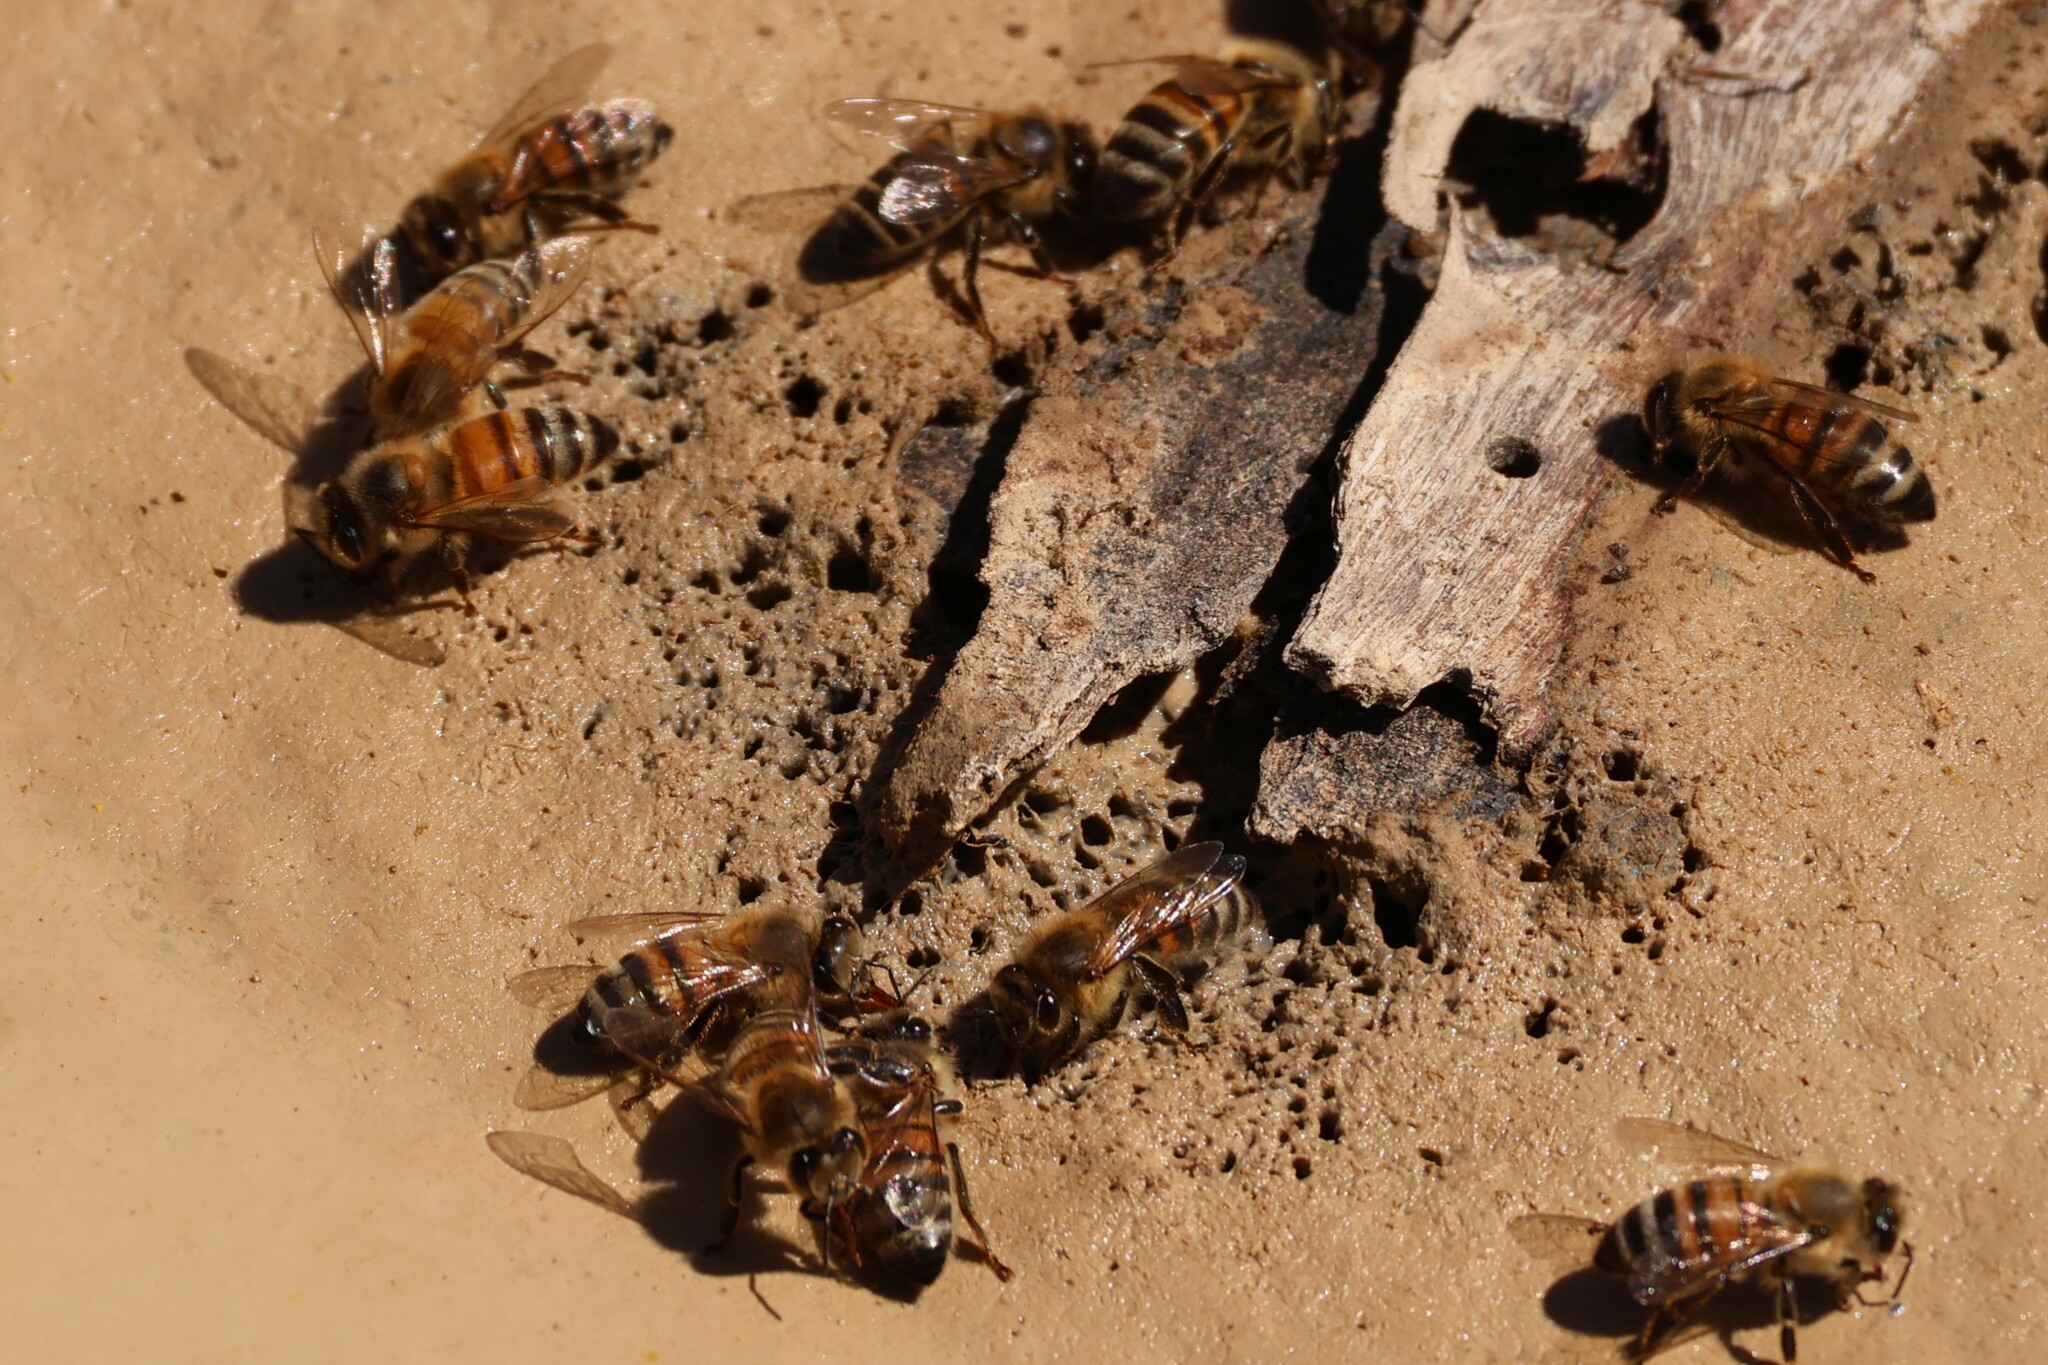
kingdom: Animalia
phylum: Arthropoda
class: Insecta
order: Hymenoptera
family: Apidae
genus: Apis
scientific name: Apis mellifera
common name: Honey bee
